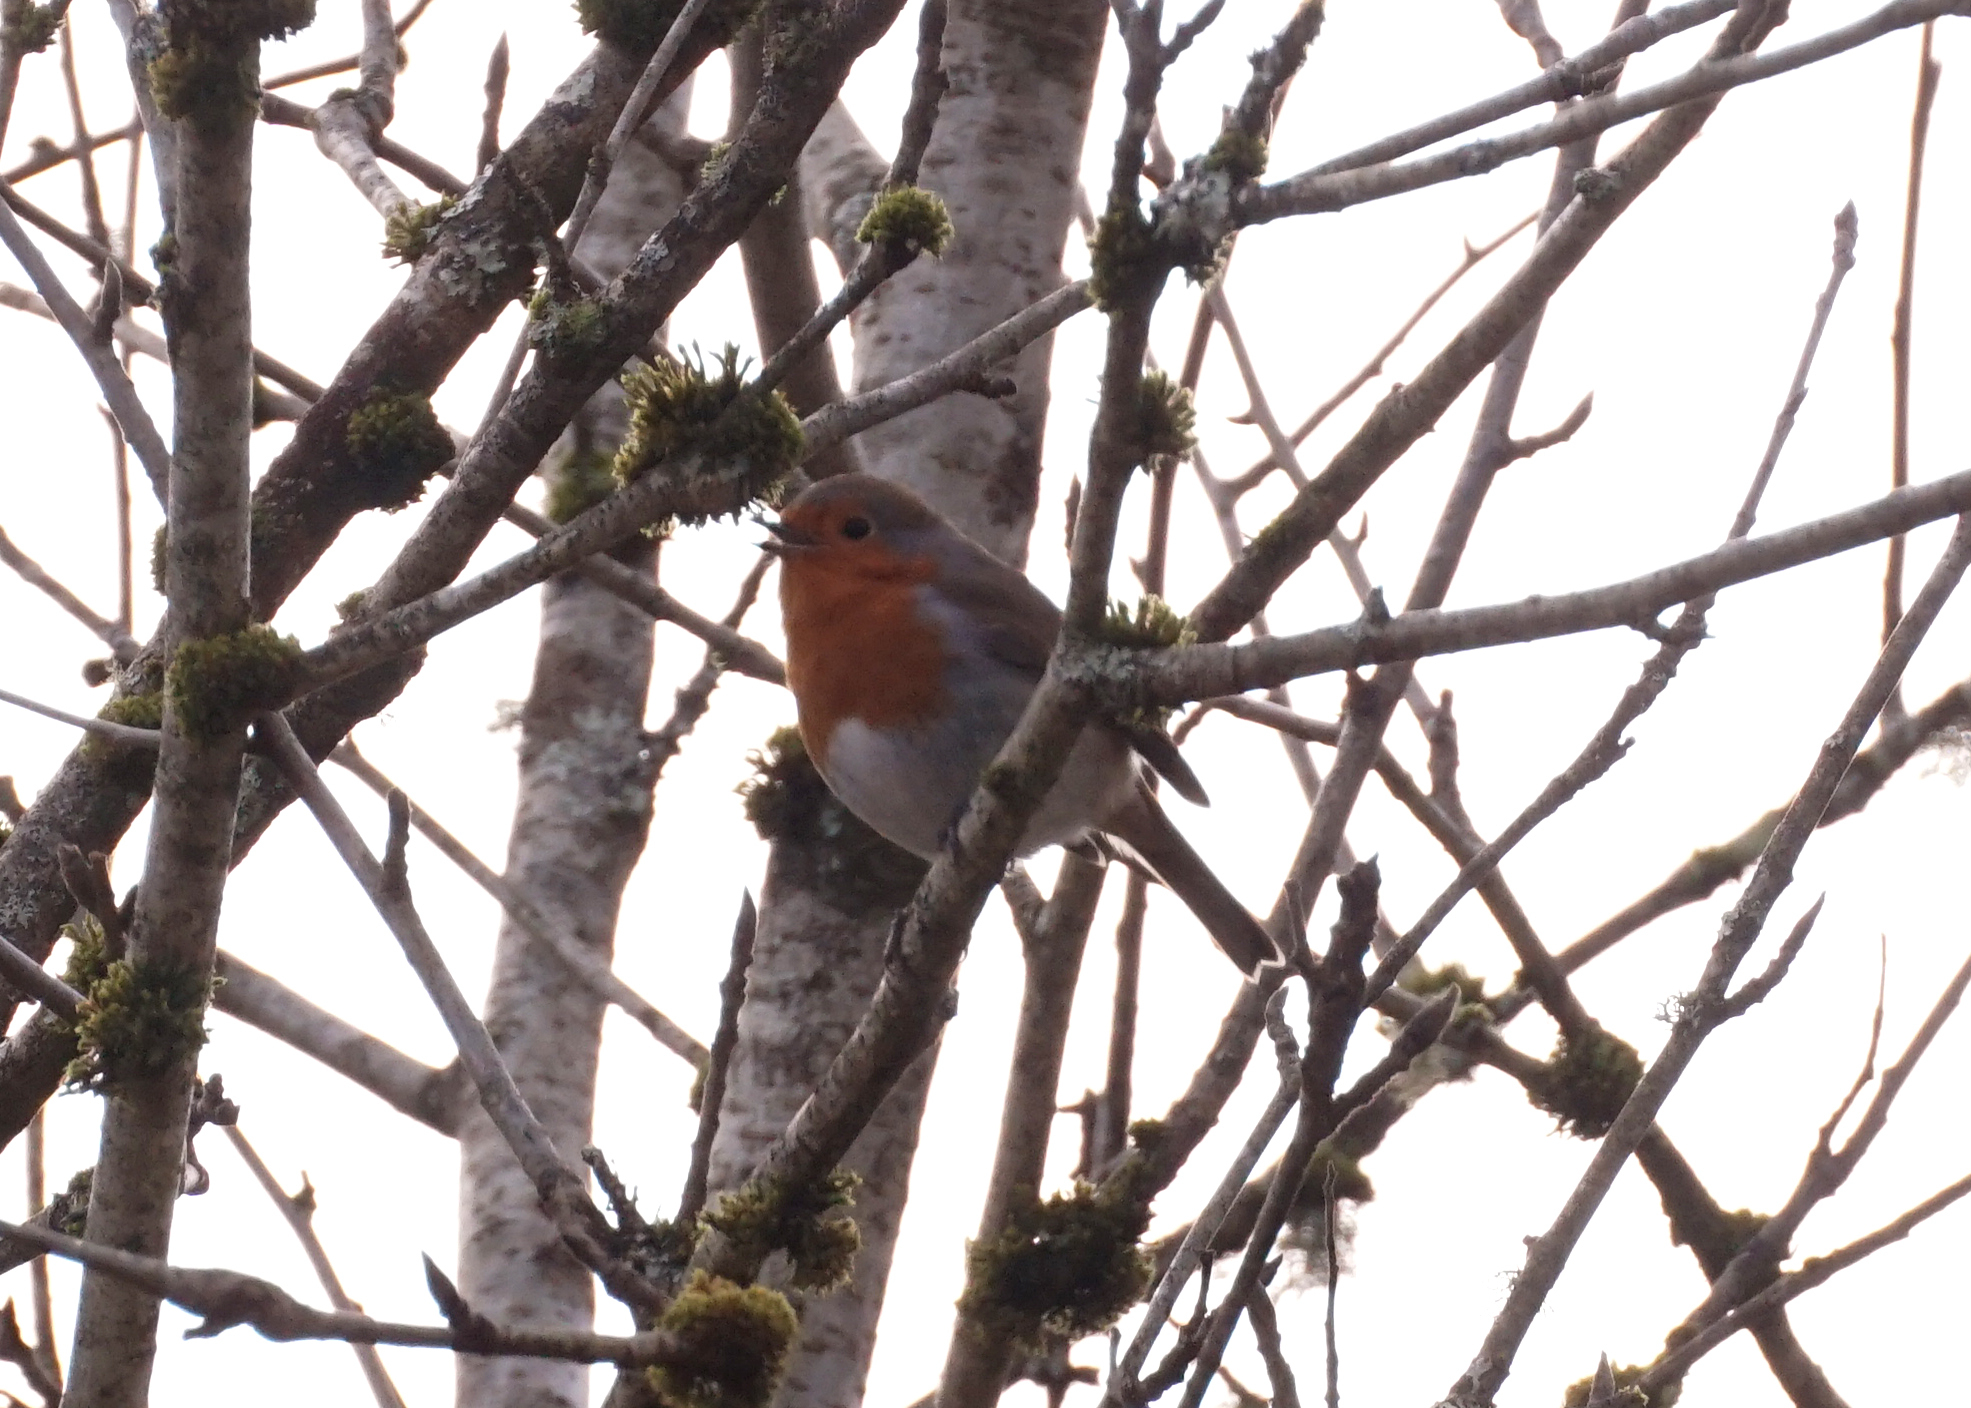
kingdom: Animalia
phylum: Chordata
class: Aves
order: Passeriformes
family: Muscicapidae
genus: Erithacus
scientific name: Erithacus rubecula
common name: European robin
